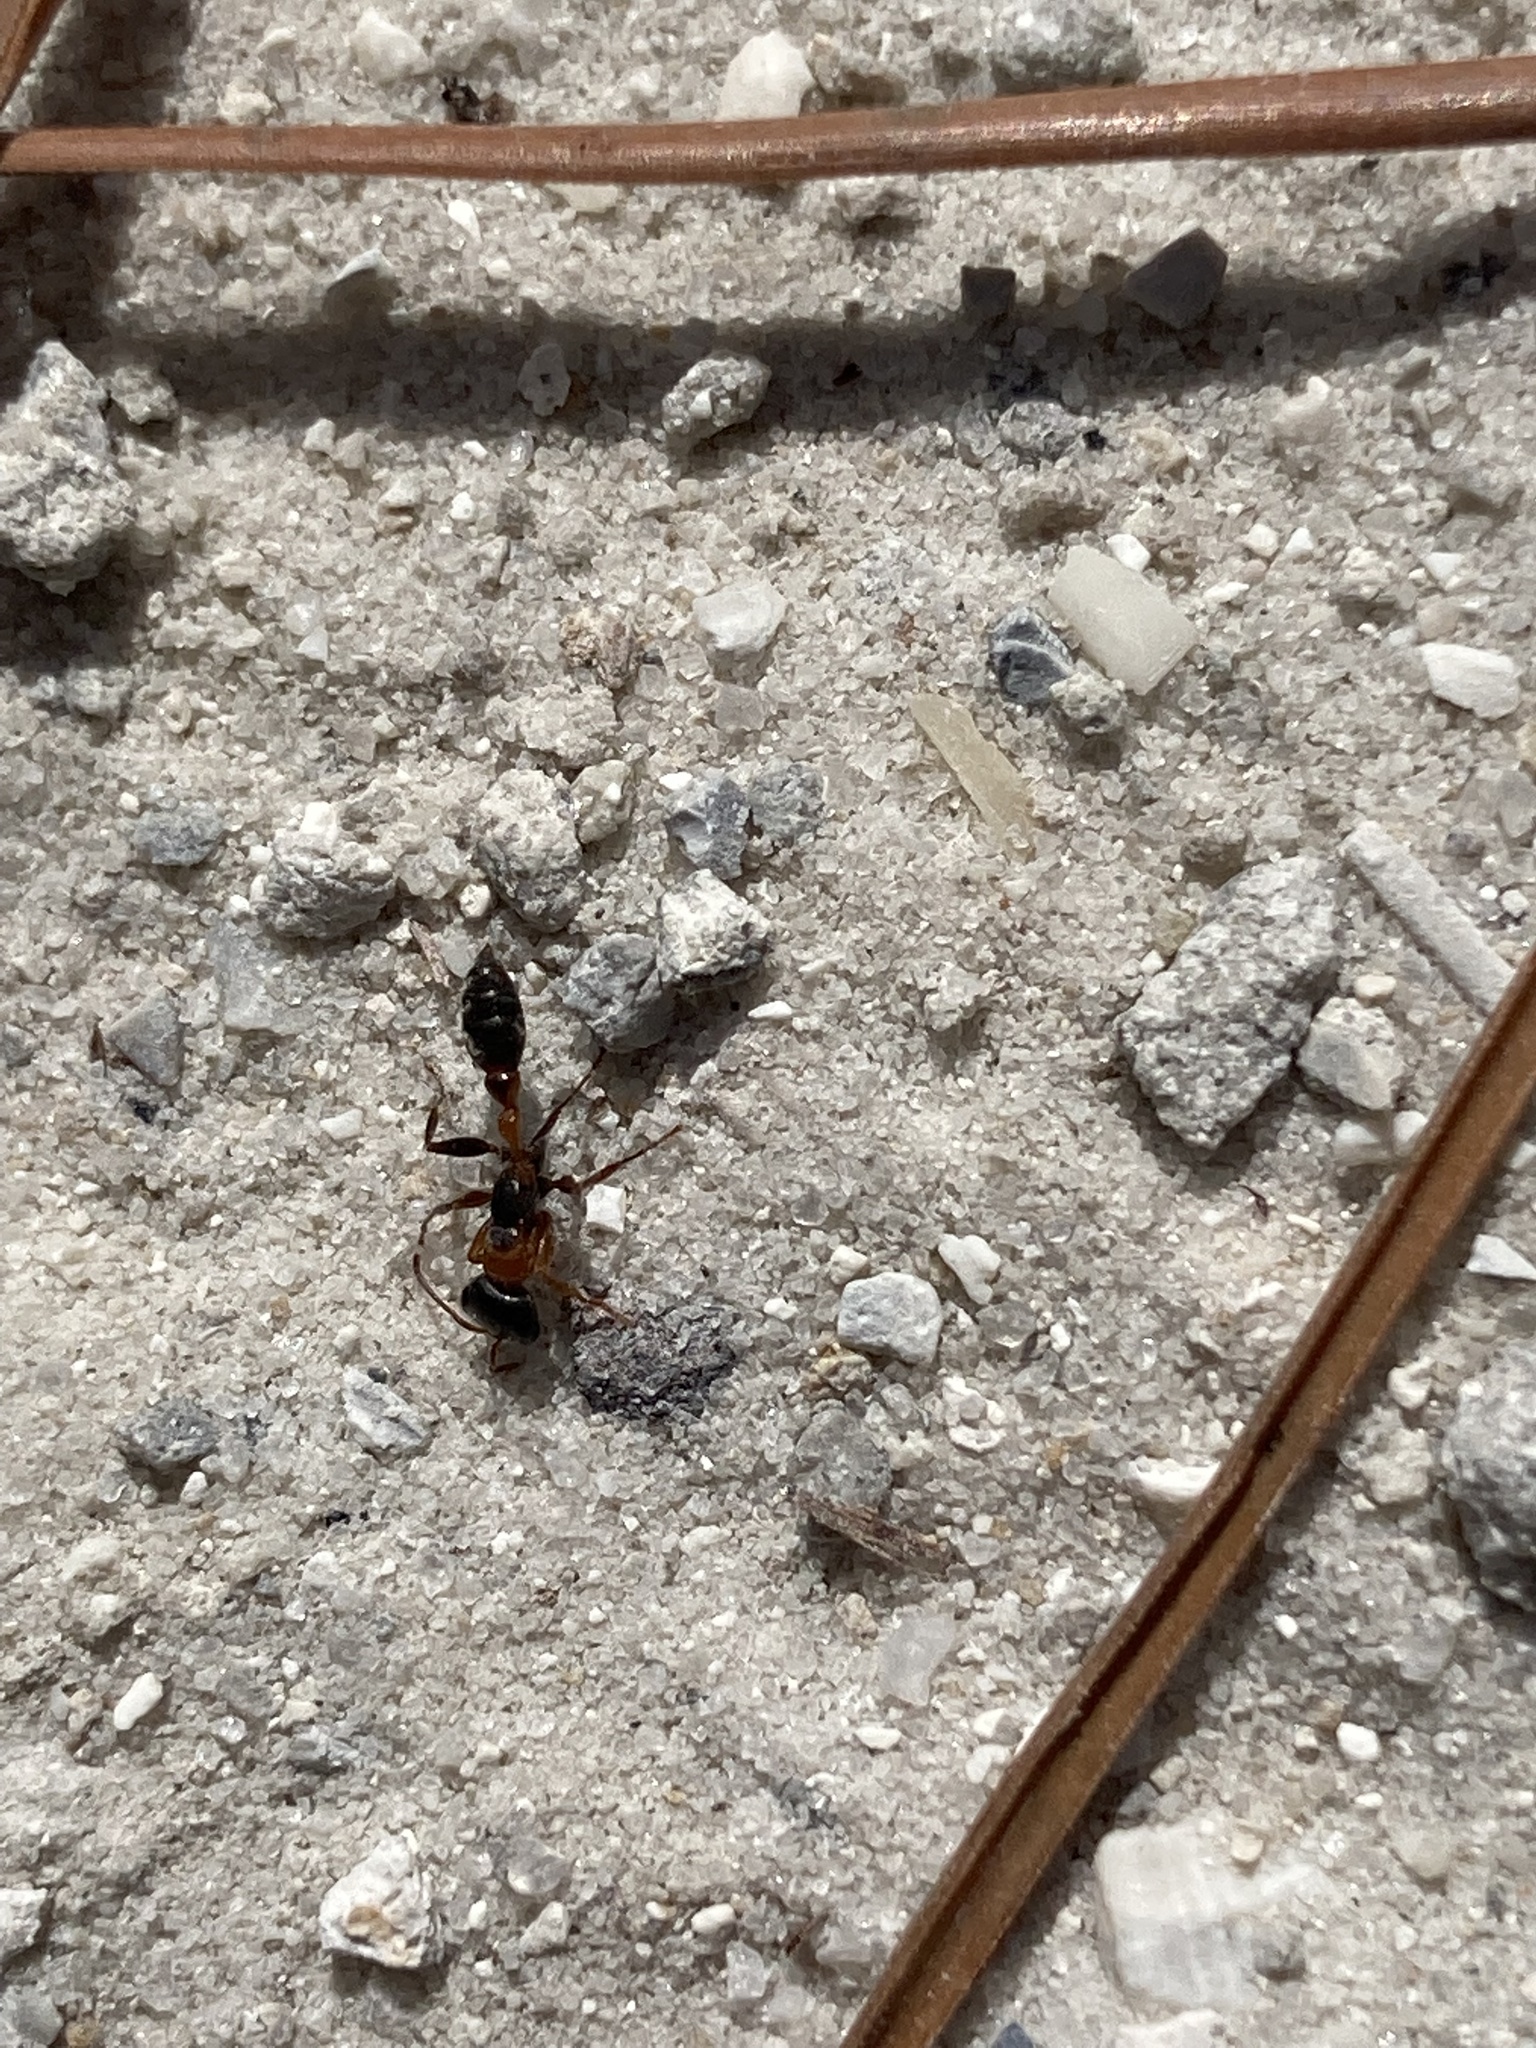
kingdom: Animalia
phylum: Arthropoda
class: Insecta
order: Hymenoptera
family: Formicidae
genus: Pseudomyrmex
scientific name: Pseudomyrmex gracilis
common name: Graceful twig ant
